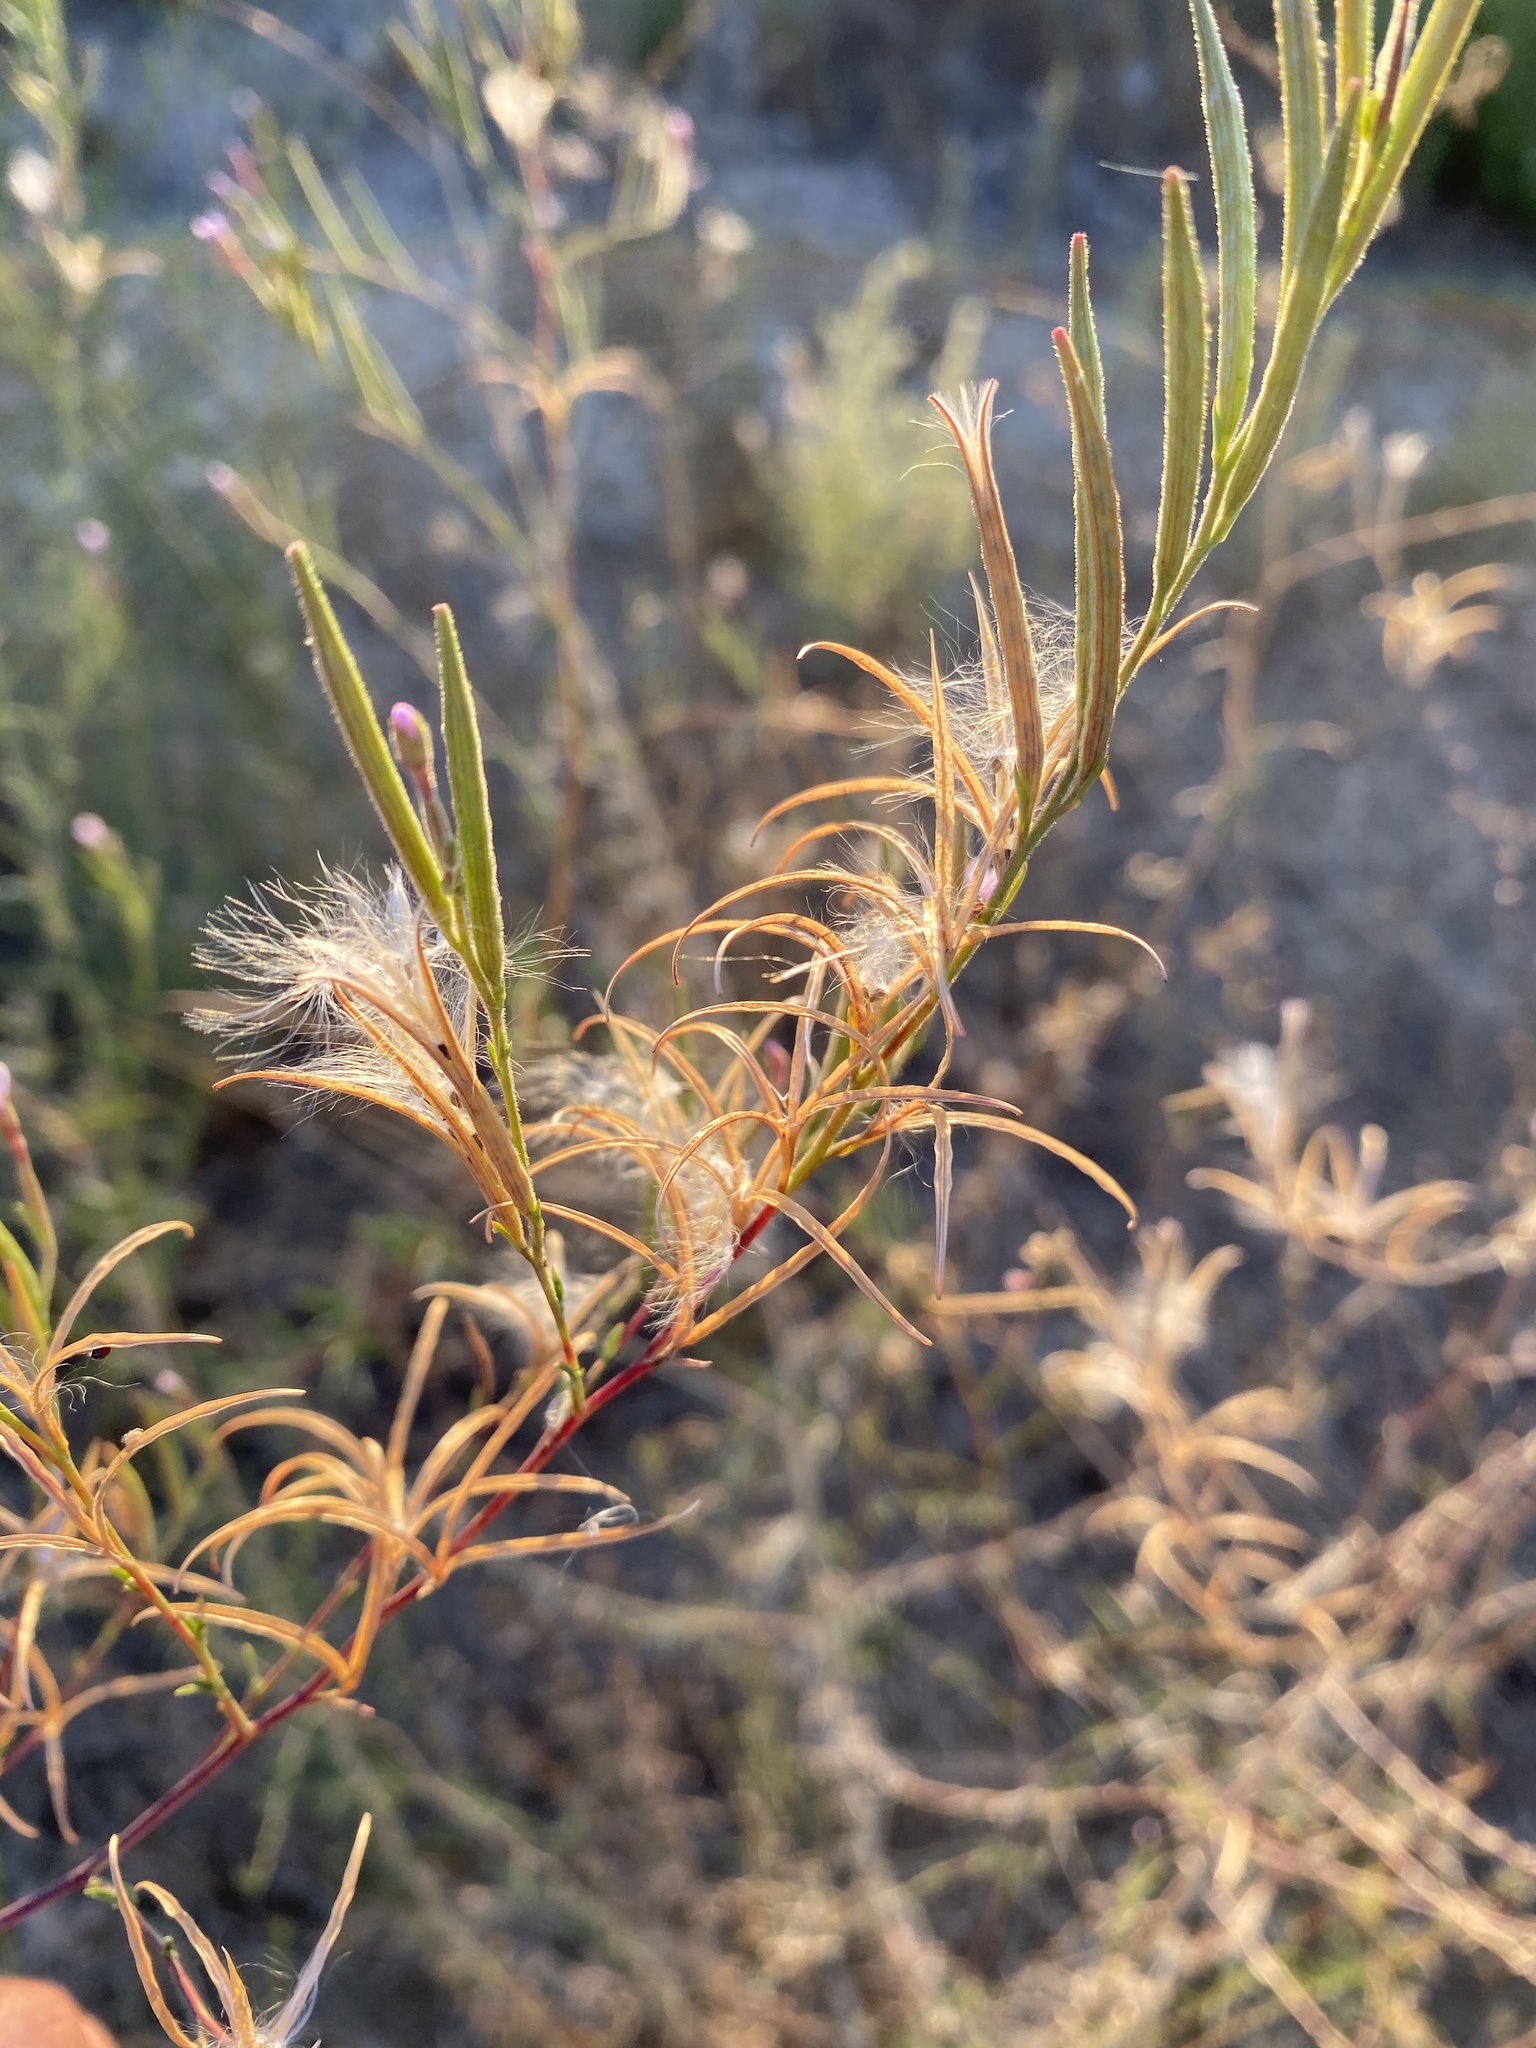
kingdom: Plantae
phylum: Tracheophyta
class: Magnoliopsida
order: Myrtales
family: Onagraceae
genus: Epilobium
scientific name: Epilobium brachycarpum
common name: Annual willowherb
